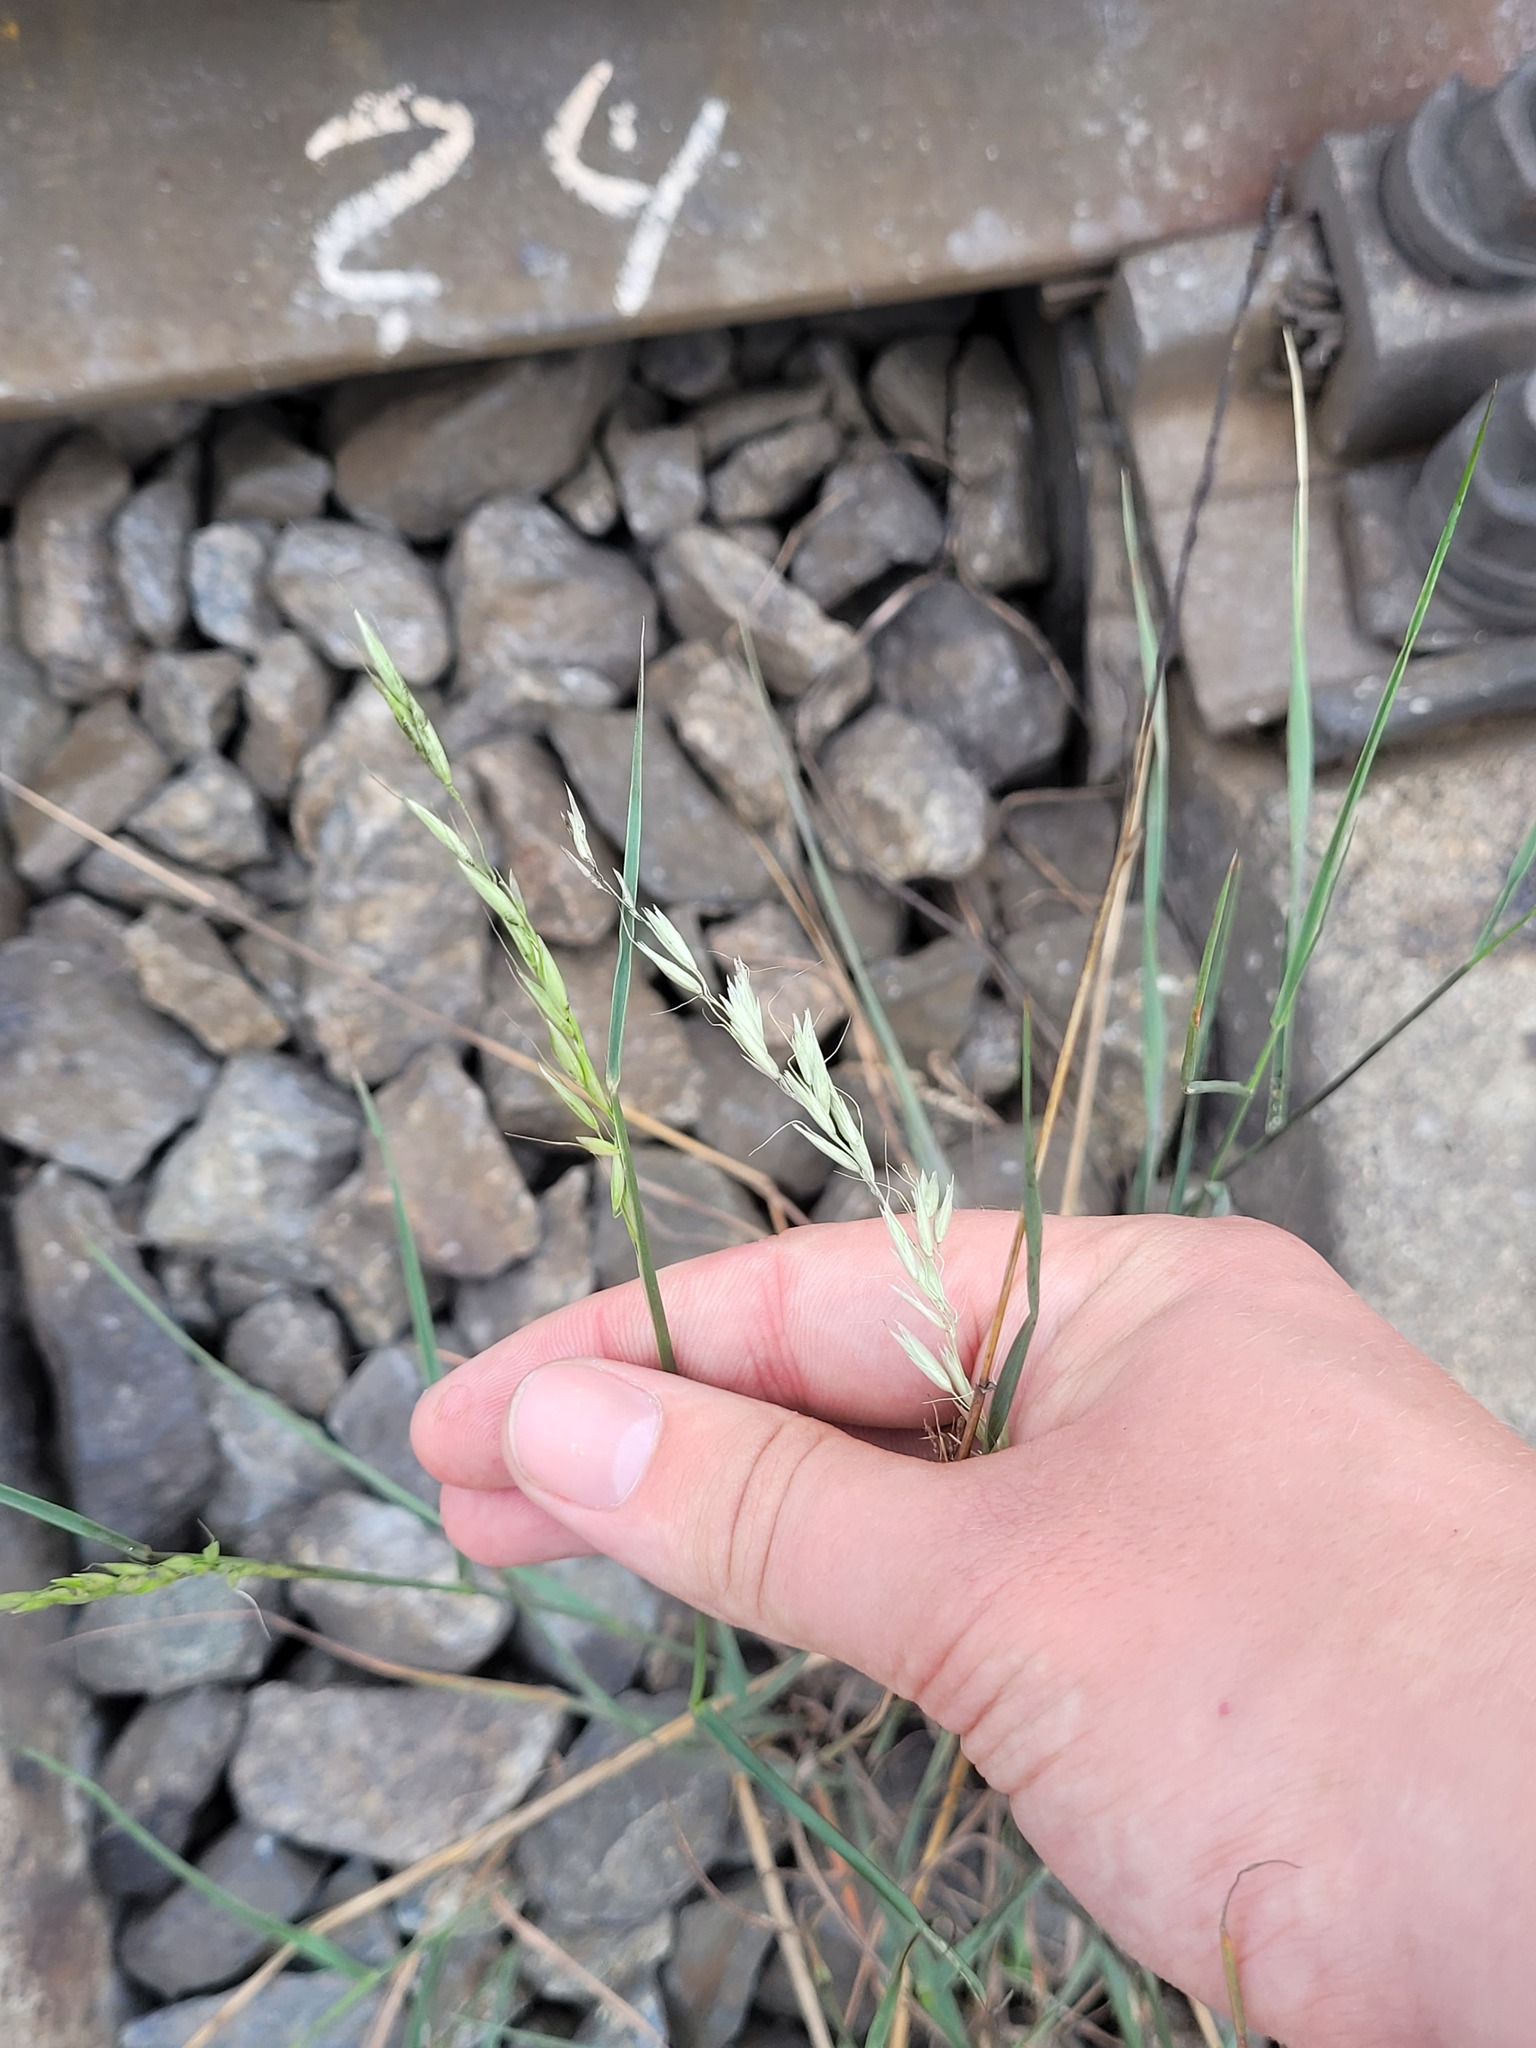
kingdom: Plantae
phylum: Tracheophyta
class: Liliopsida
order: Poales
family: Poaceae
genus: Arrhenatherum
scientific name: Arrhenatherum elatius
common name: Tall oatgrass
